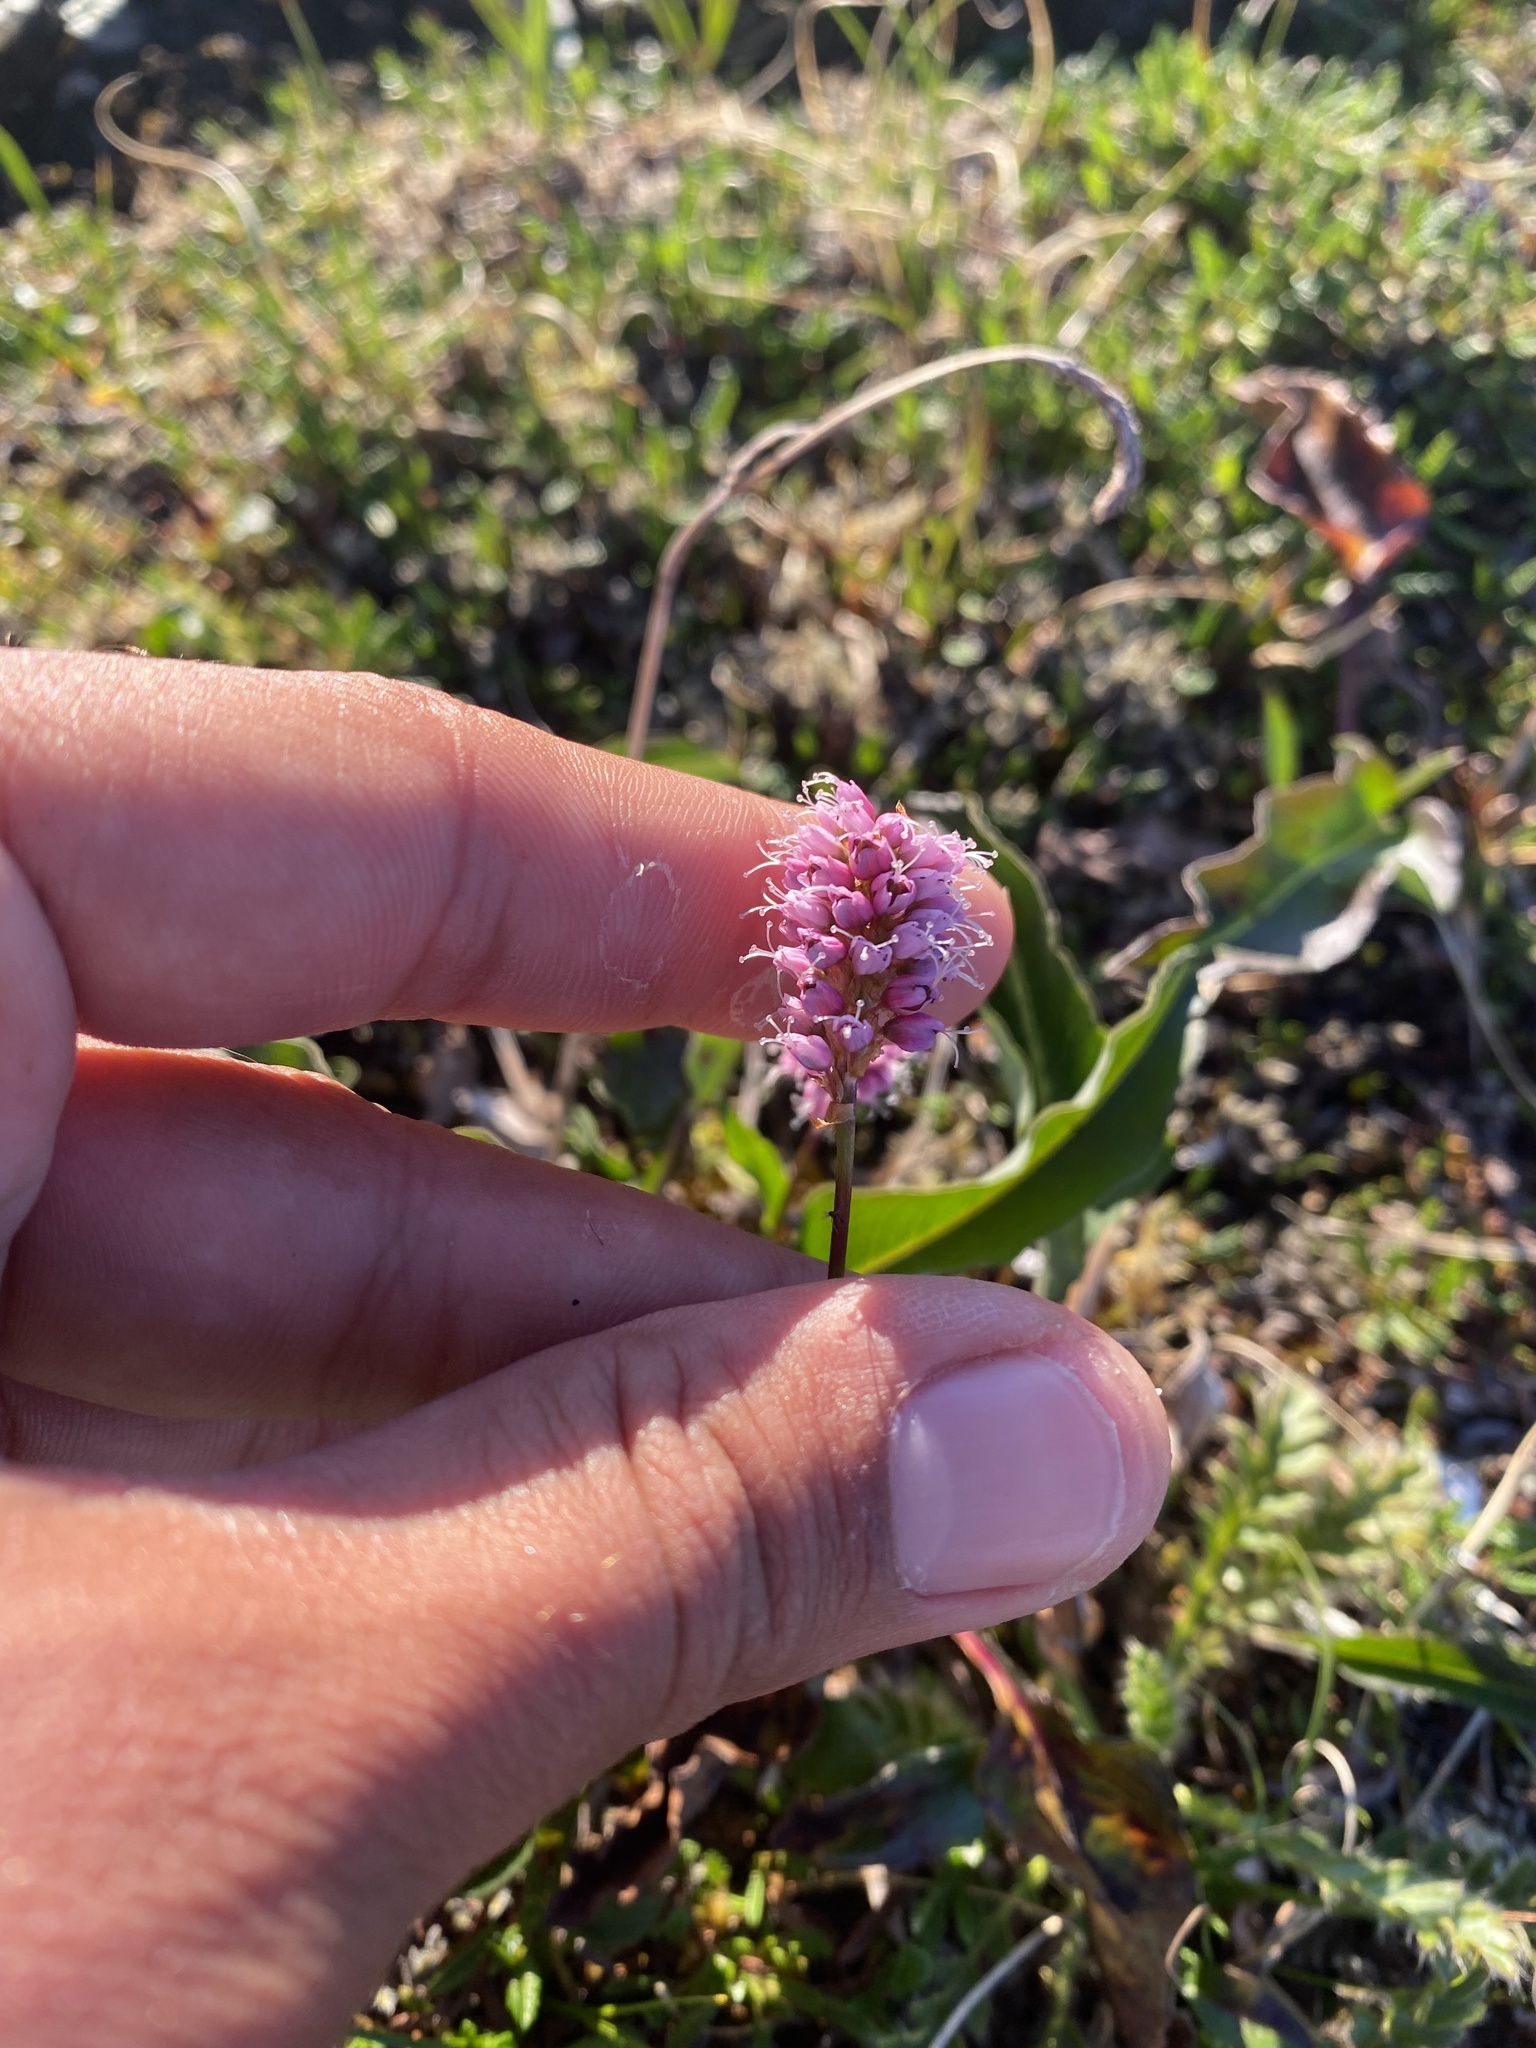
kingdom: Plantae
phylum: Tracheophyta
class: Magnoliopsida
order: Caryophyllales
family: Polygonaceae
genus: Bistorta
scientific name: Bistorta plumosa
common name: Meadow bistort
